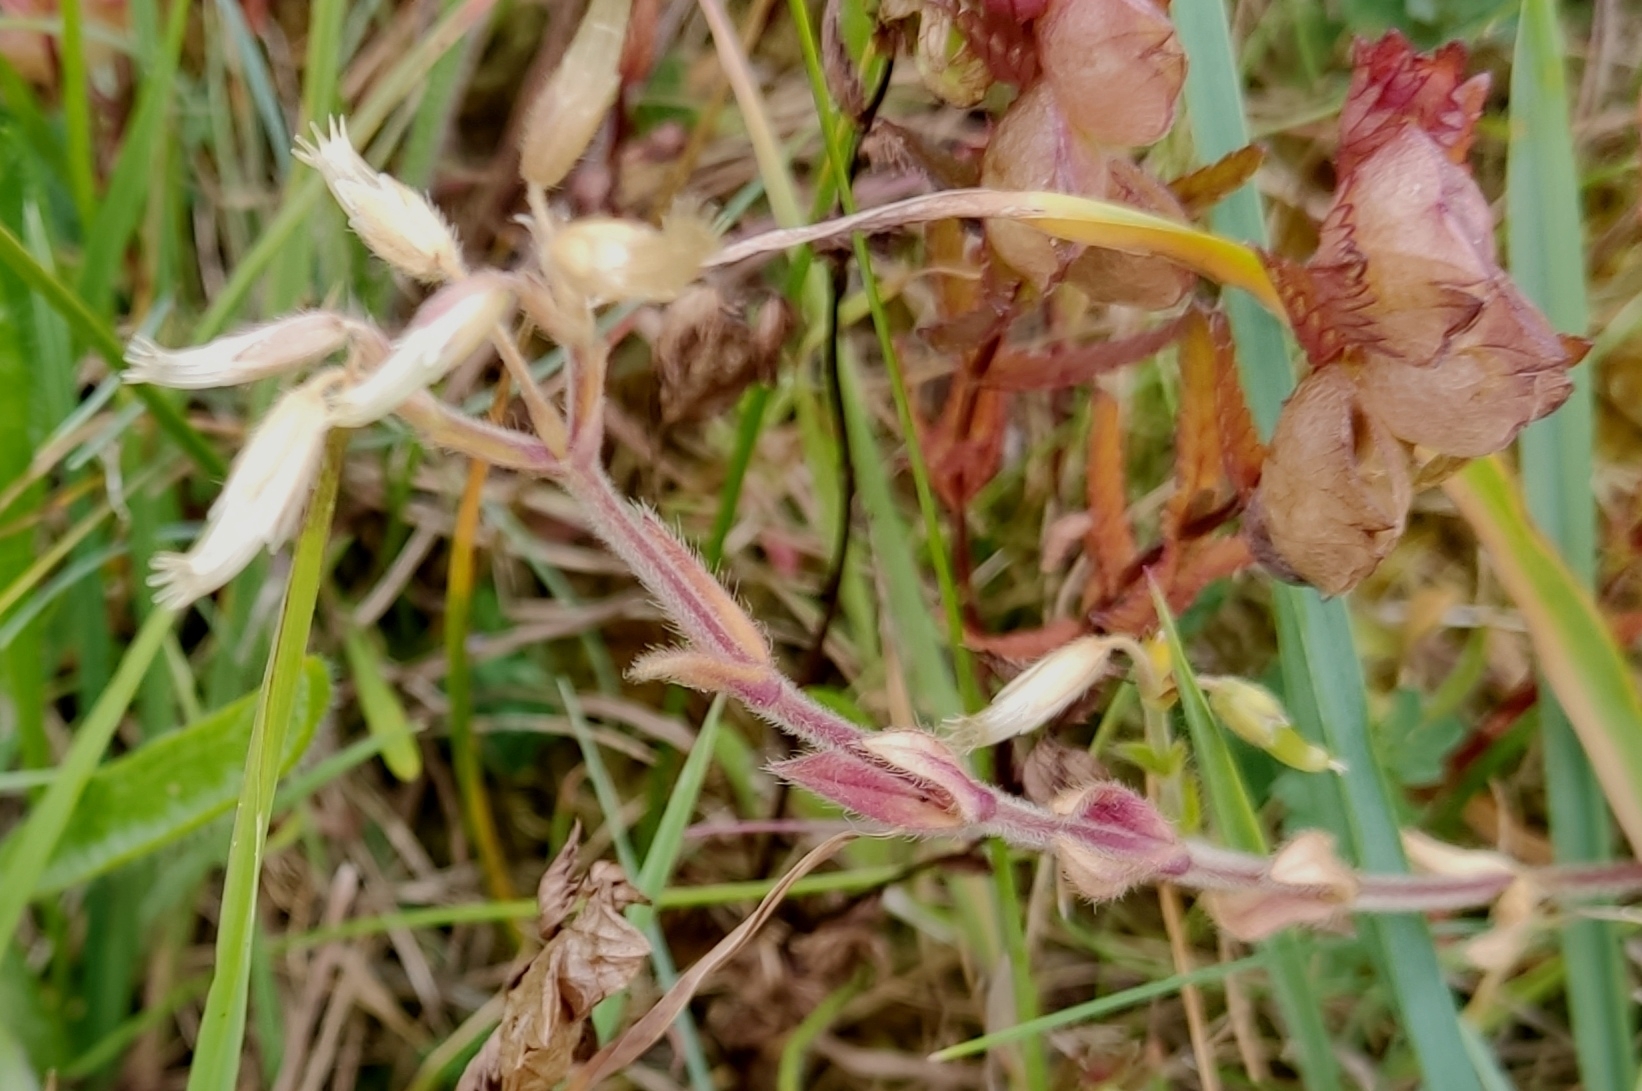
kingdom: Plantae
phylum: Tracheophyta
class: Magnoliopsida
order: Caryophyllales
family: Caryophyllaceae
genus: Cerastium
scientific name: Cerastium holosteoides
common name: Big chickweed
